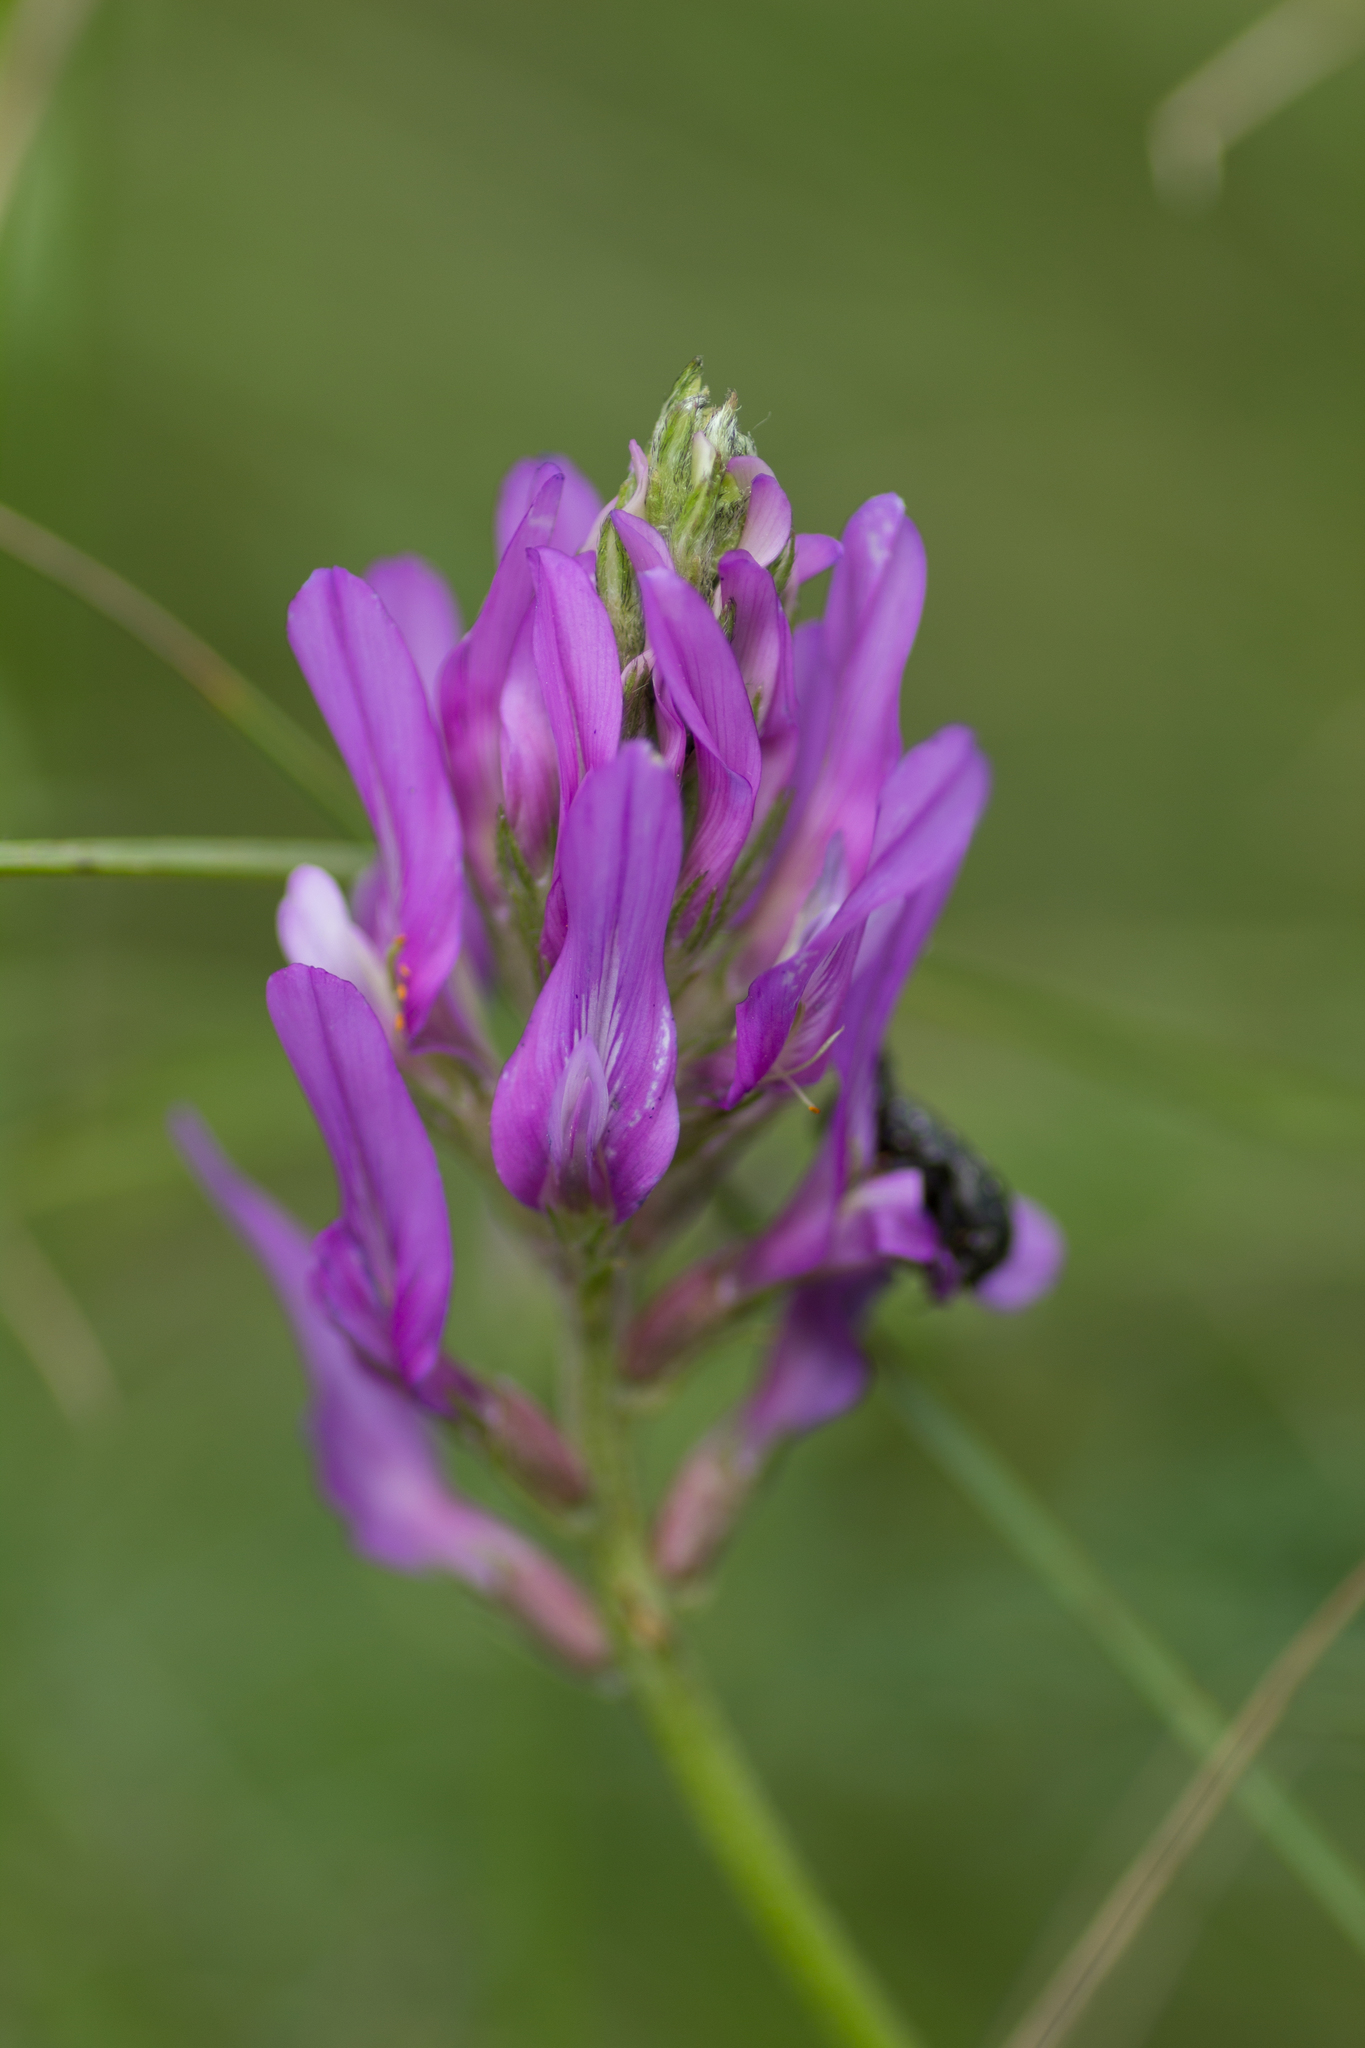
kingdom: Plantae
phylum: Tracheophyta
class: Magnoliopsida
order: Fabales
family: Fabaceae
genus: Astragalus
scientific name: Astragalus onobrychis
